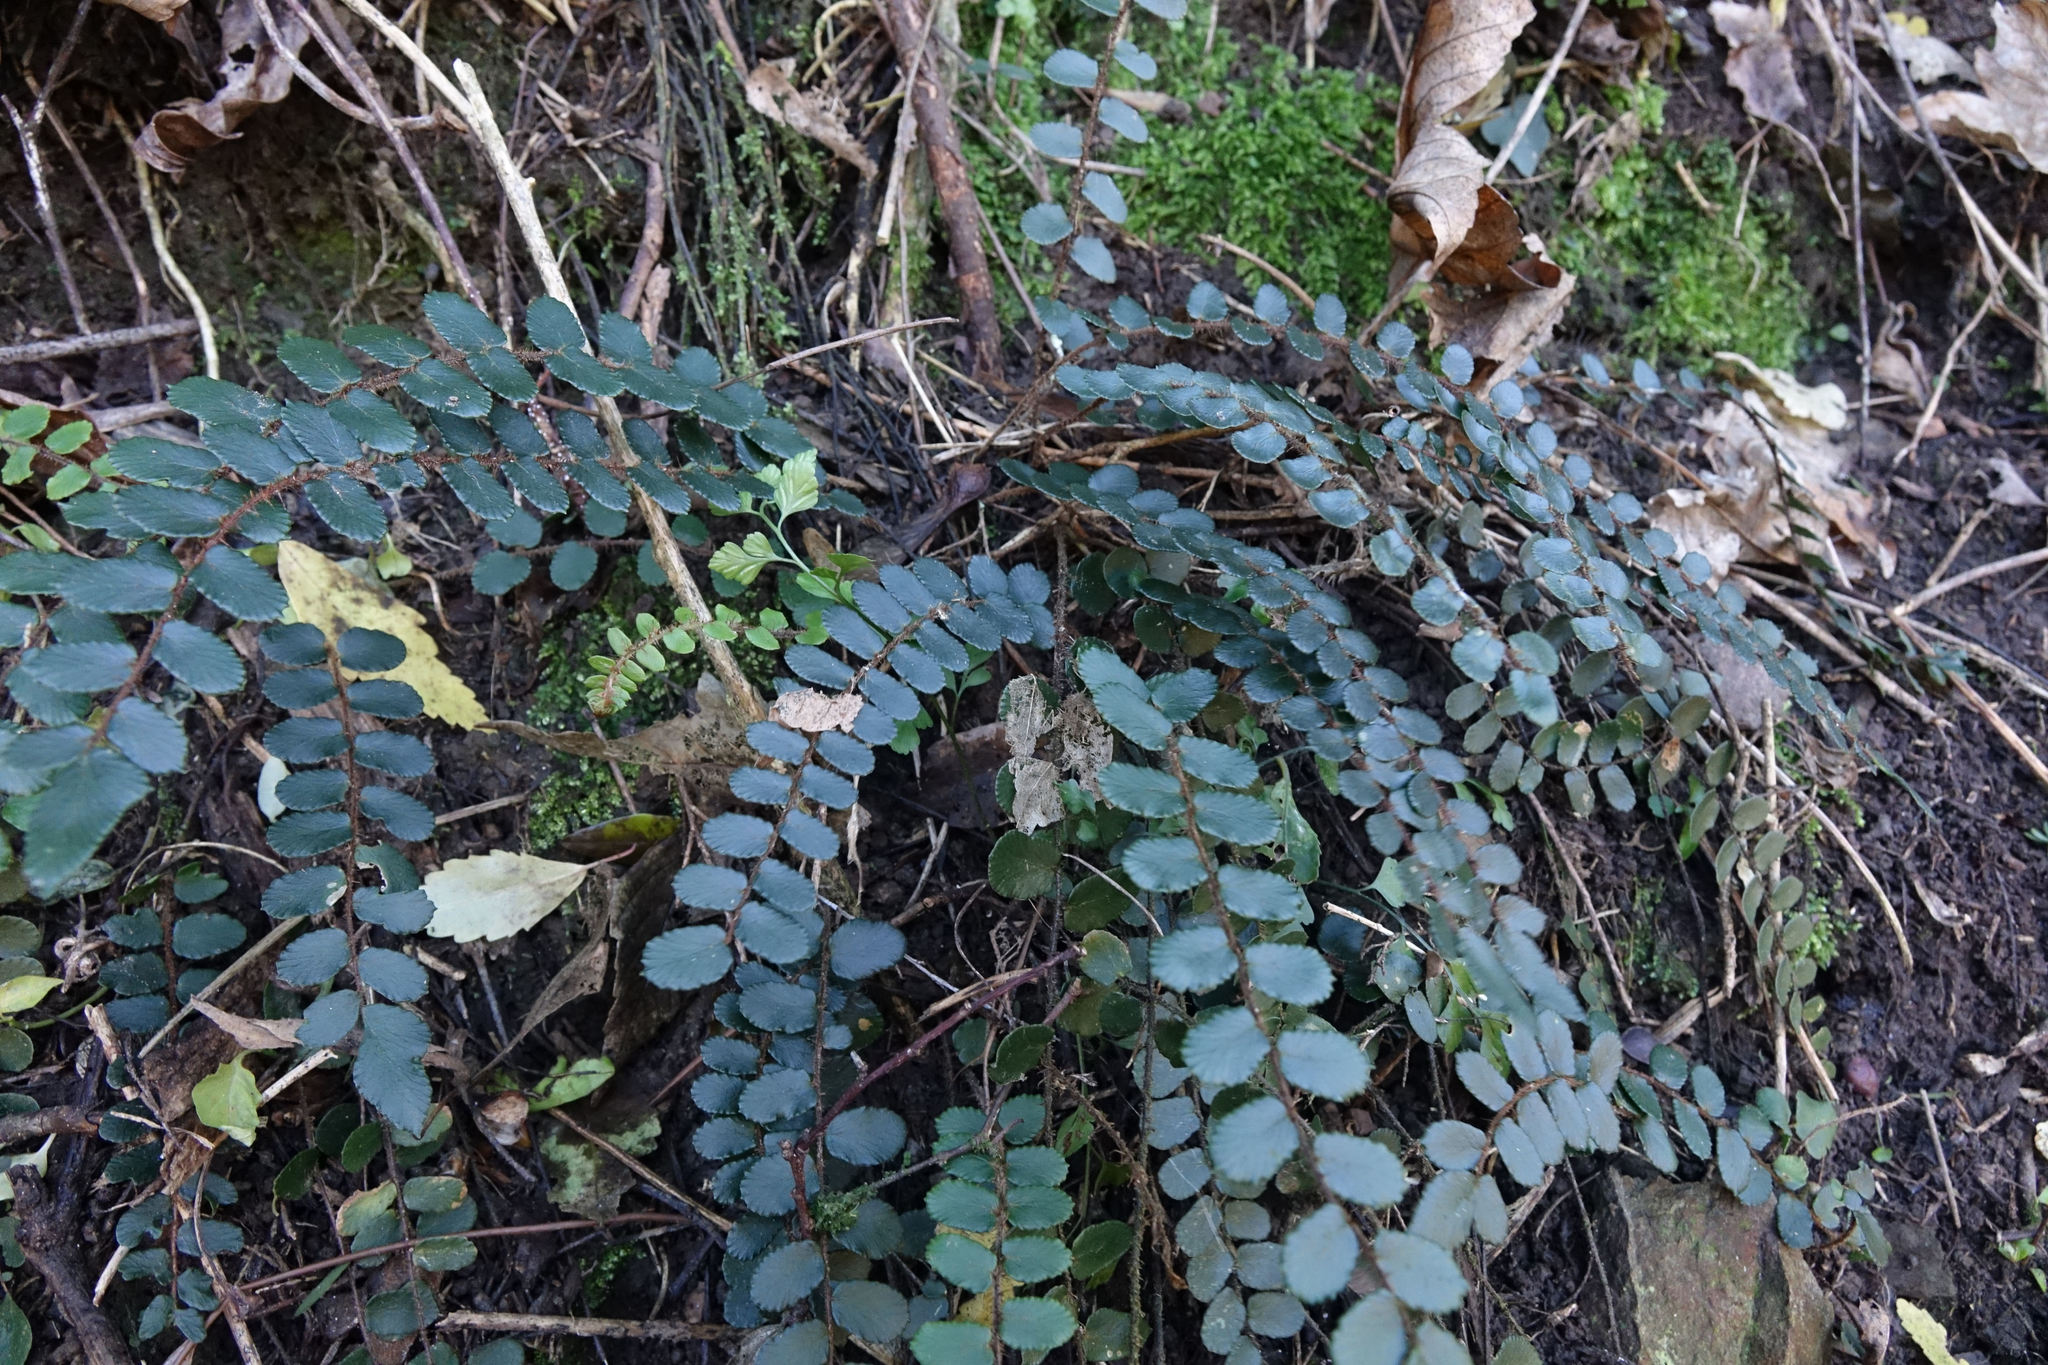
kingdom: Plantae
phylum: Tracheophyta
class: Polypodiopsida
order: Polypodiales
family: Pteridaceae
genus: Pellaea
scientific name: Pellaea rotundifolia
